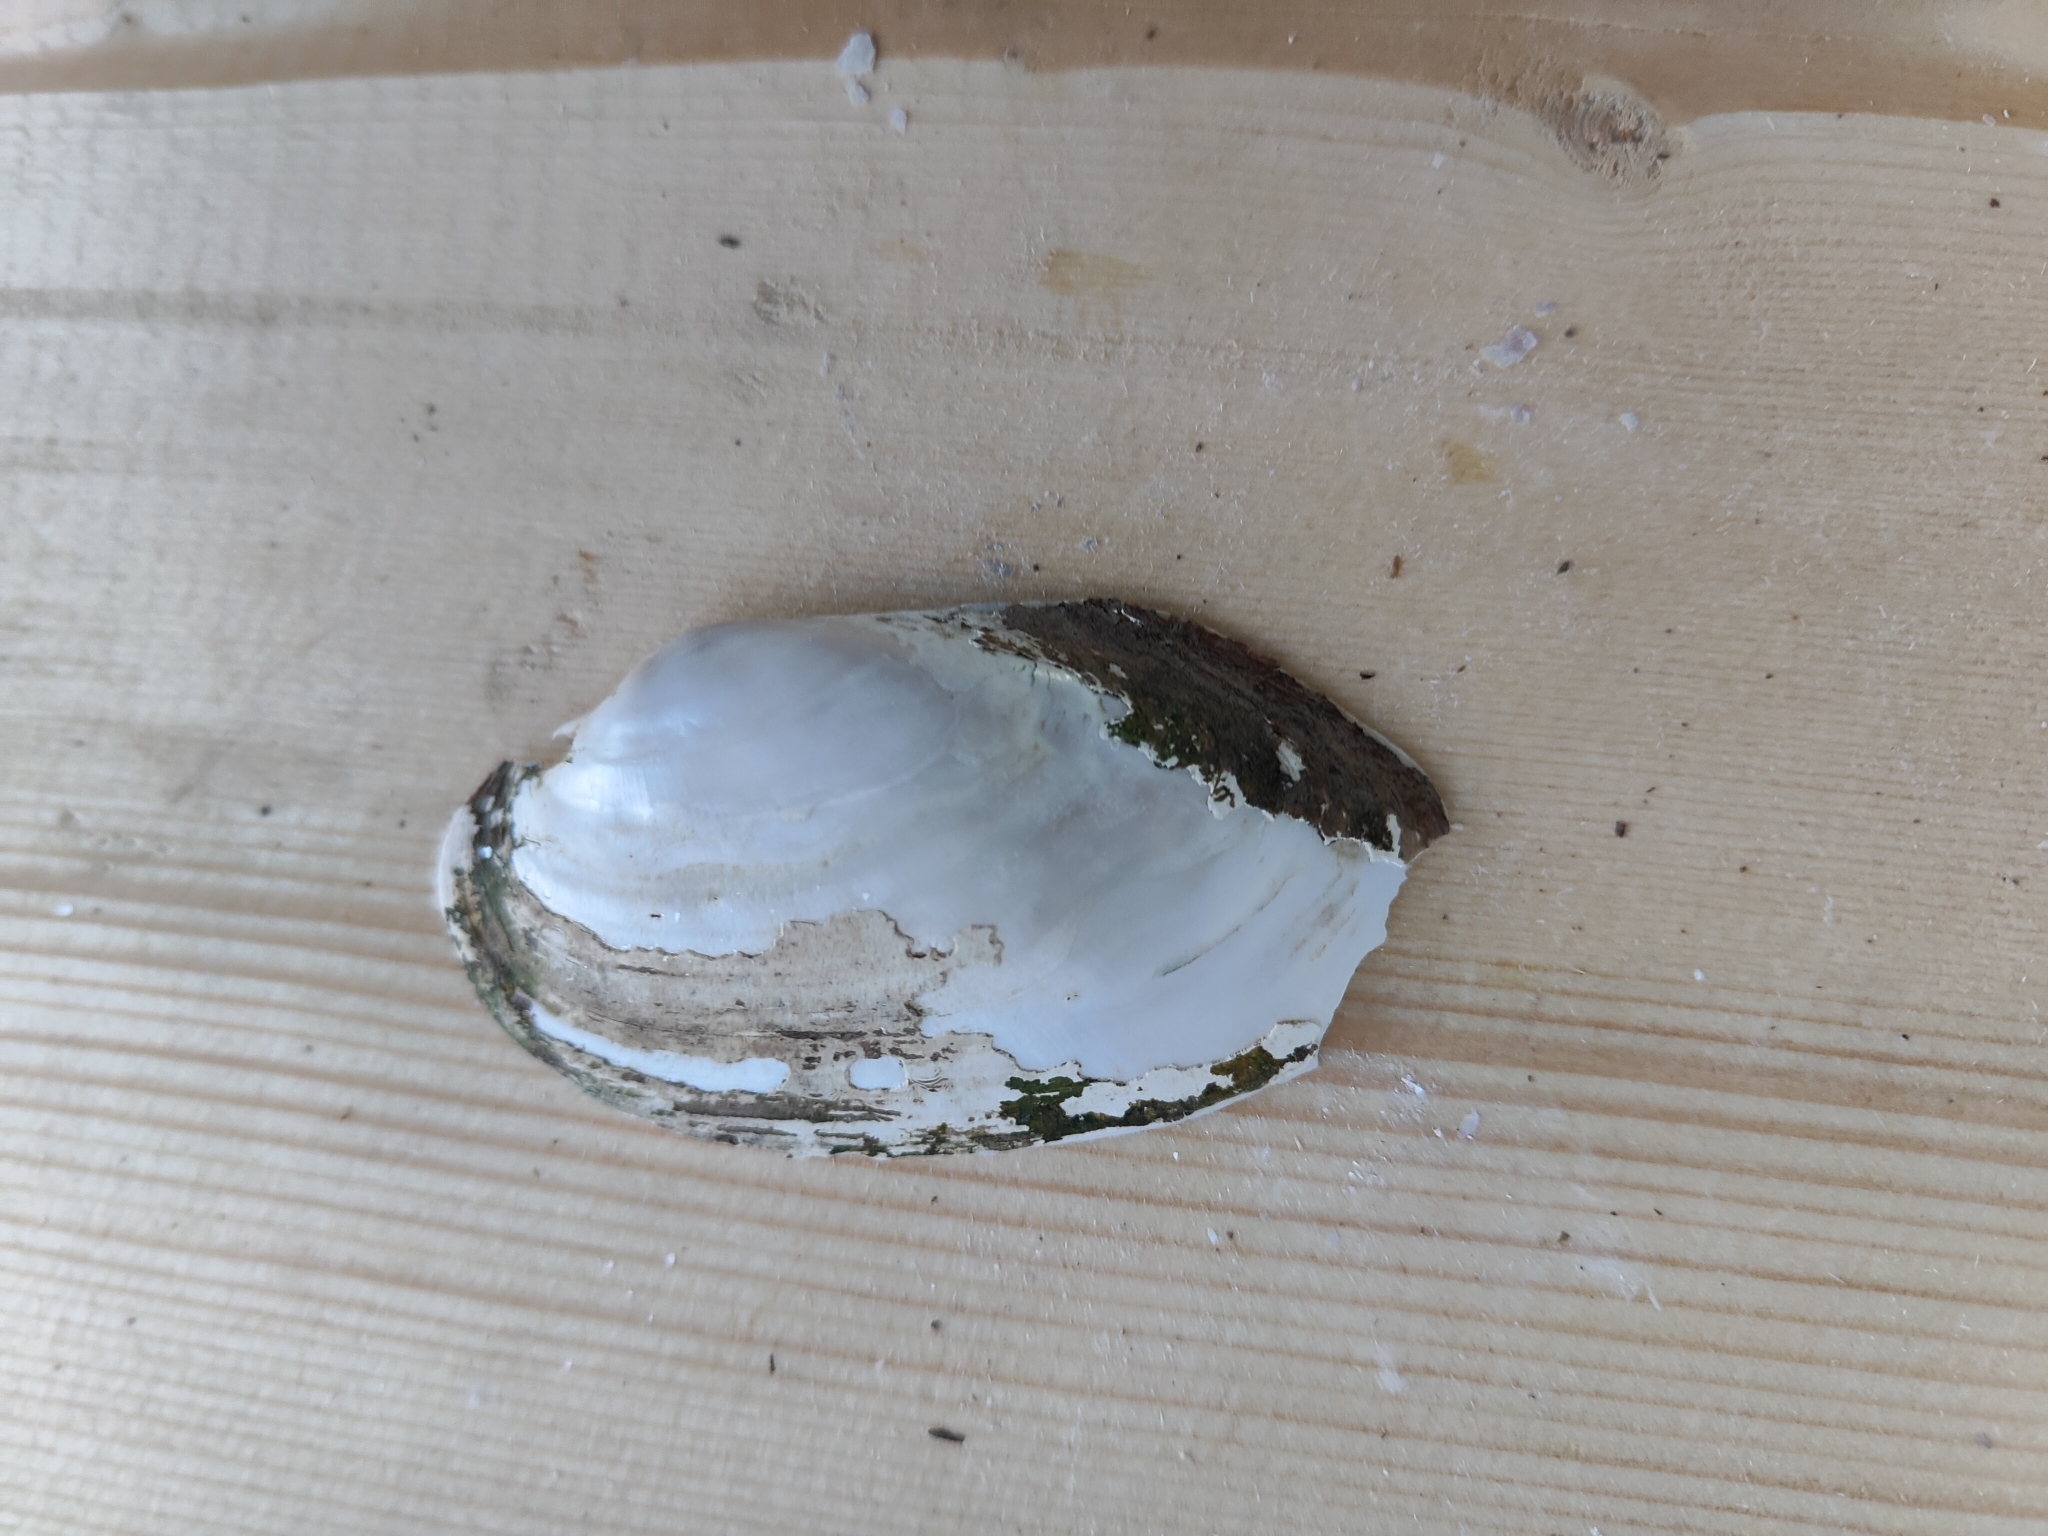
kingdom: Animalia
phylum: Mollusca
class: Bivalvia
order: Unionida
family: Unionidae
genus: Lampsilis
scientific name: Lampsilis siliquoidea
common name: Fatmucket
